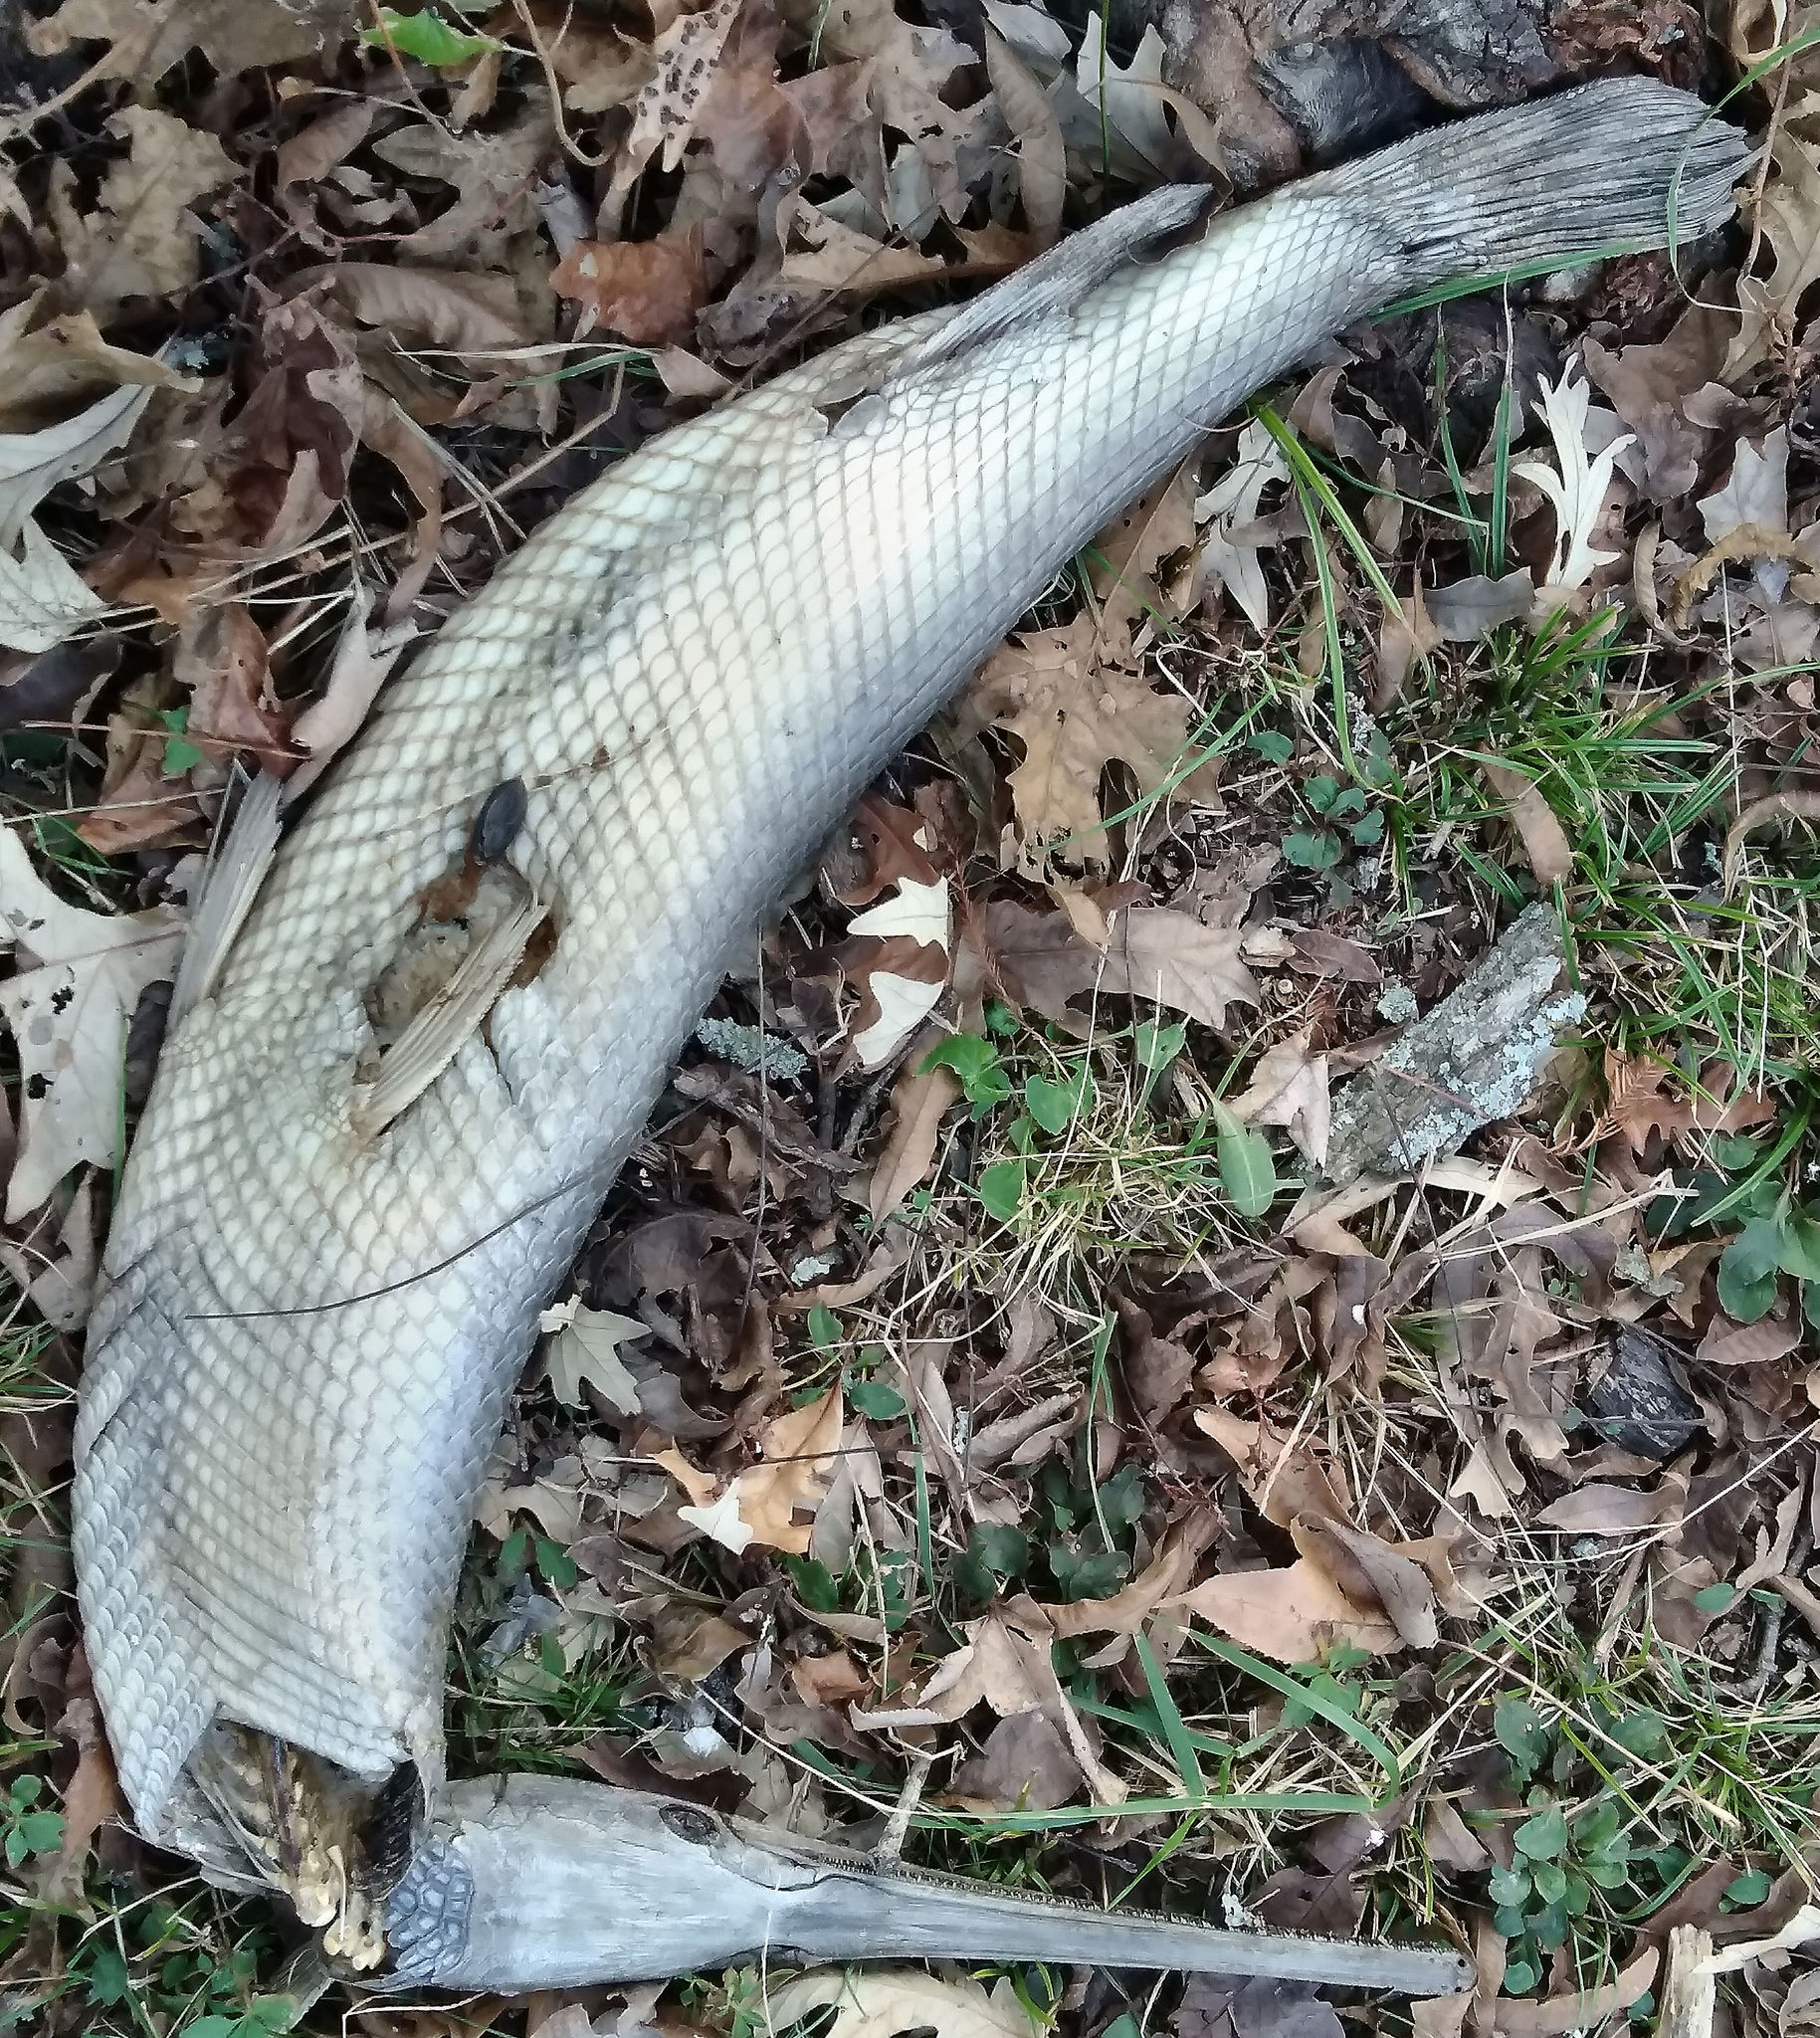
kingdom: Animalia
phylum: Chordata
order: Lepisosteiformes
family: Lepisosteidae
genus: Lepisosteus
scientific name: Lepisosteus osseus
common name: Longnose gar
